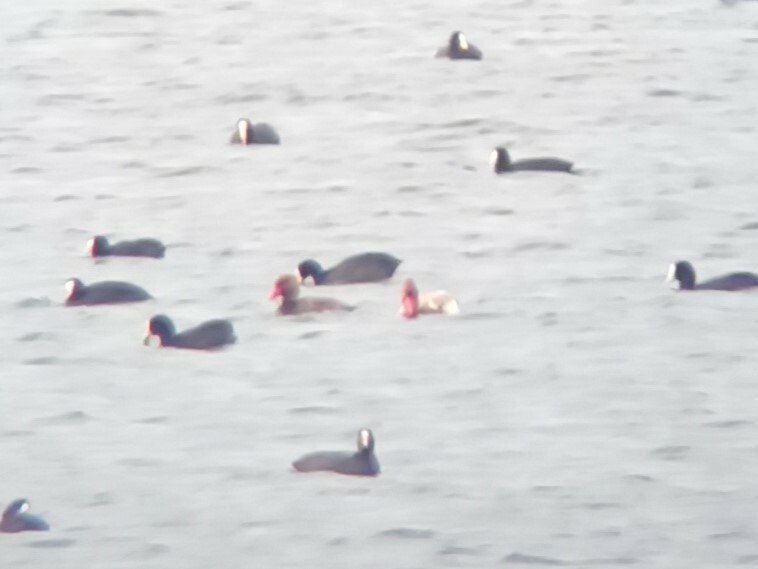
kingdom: Animalia
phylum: Chordata
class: Aves
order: Anseriformes
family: Anatidae
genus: Netta
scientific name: Netta rufina
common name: Red-crested pochard
